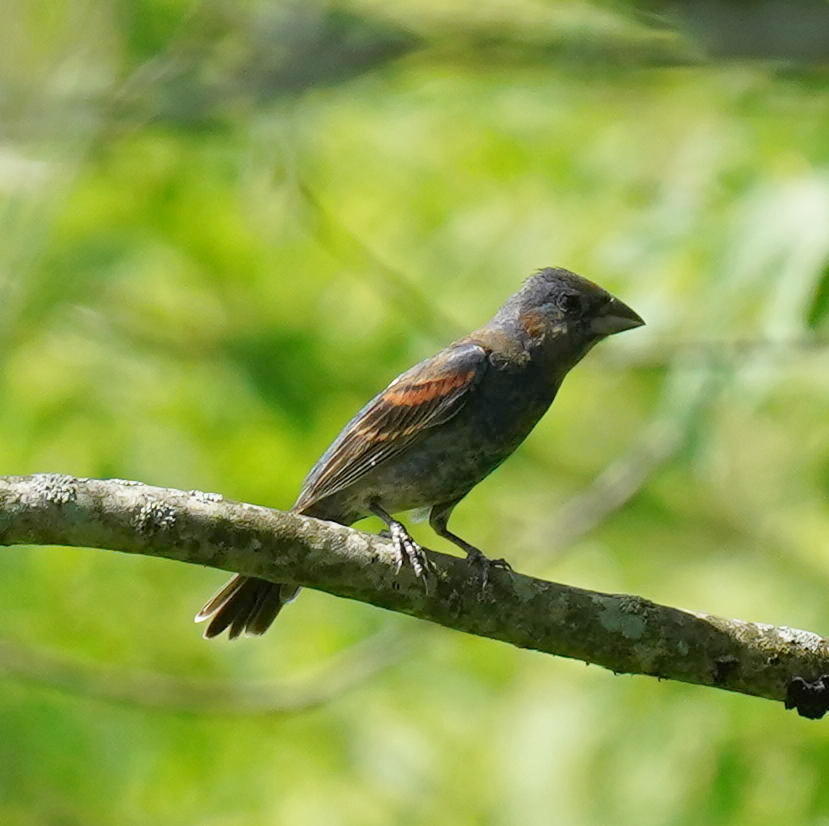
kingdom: Animalia
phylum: Chordata
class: Aves
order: Passeriformes
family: Cardinalidae
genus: Passerina
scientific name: Passerina caerulea
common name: Blue grosbeak
